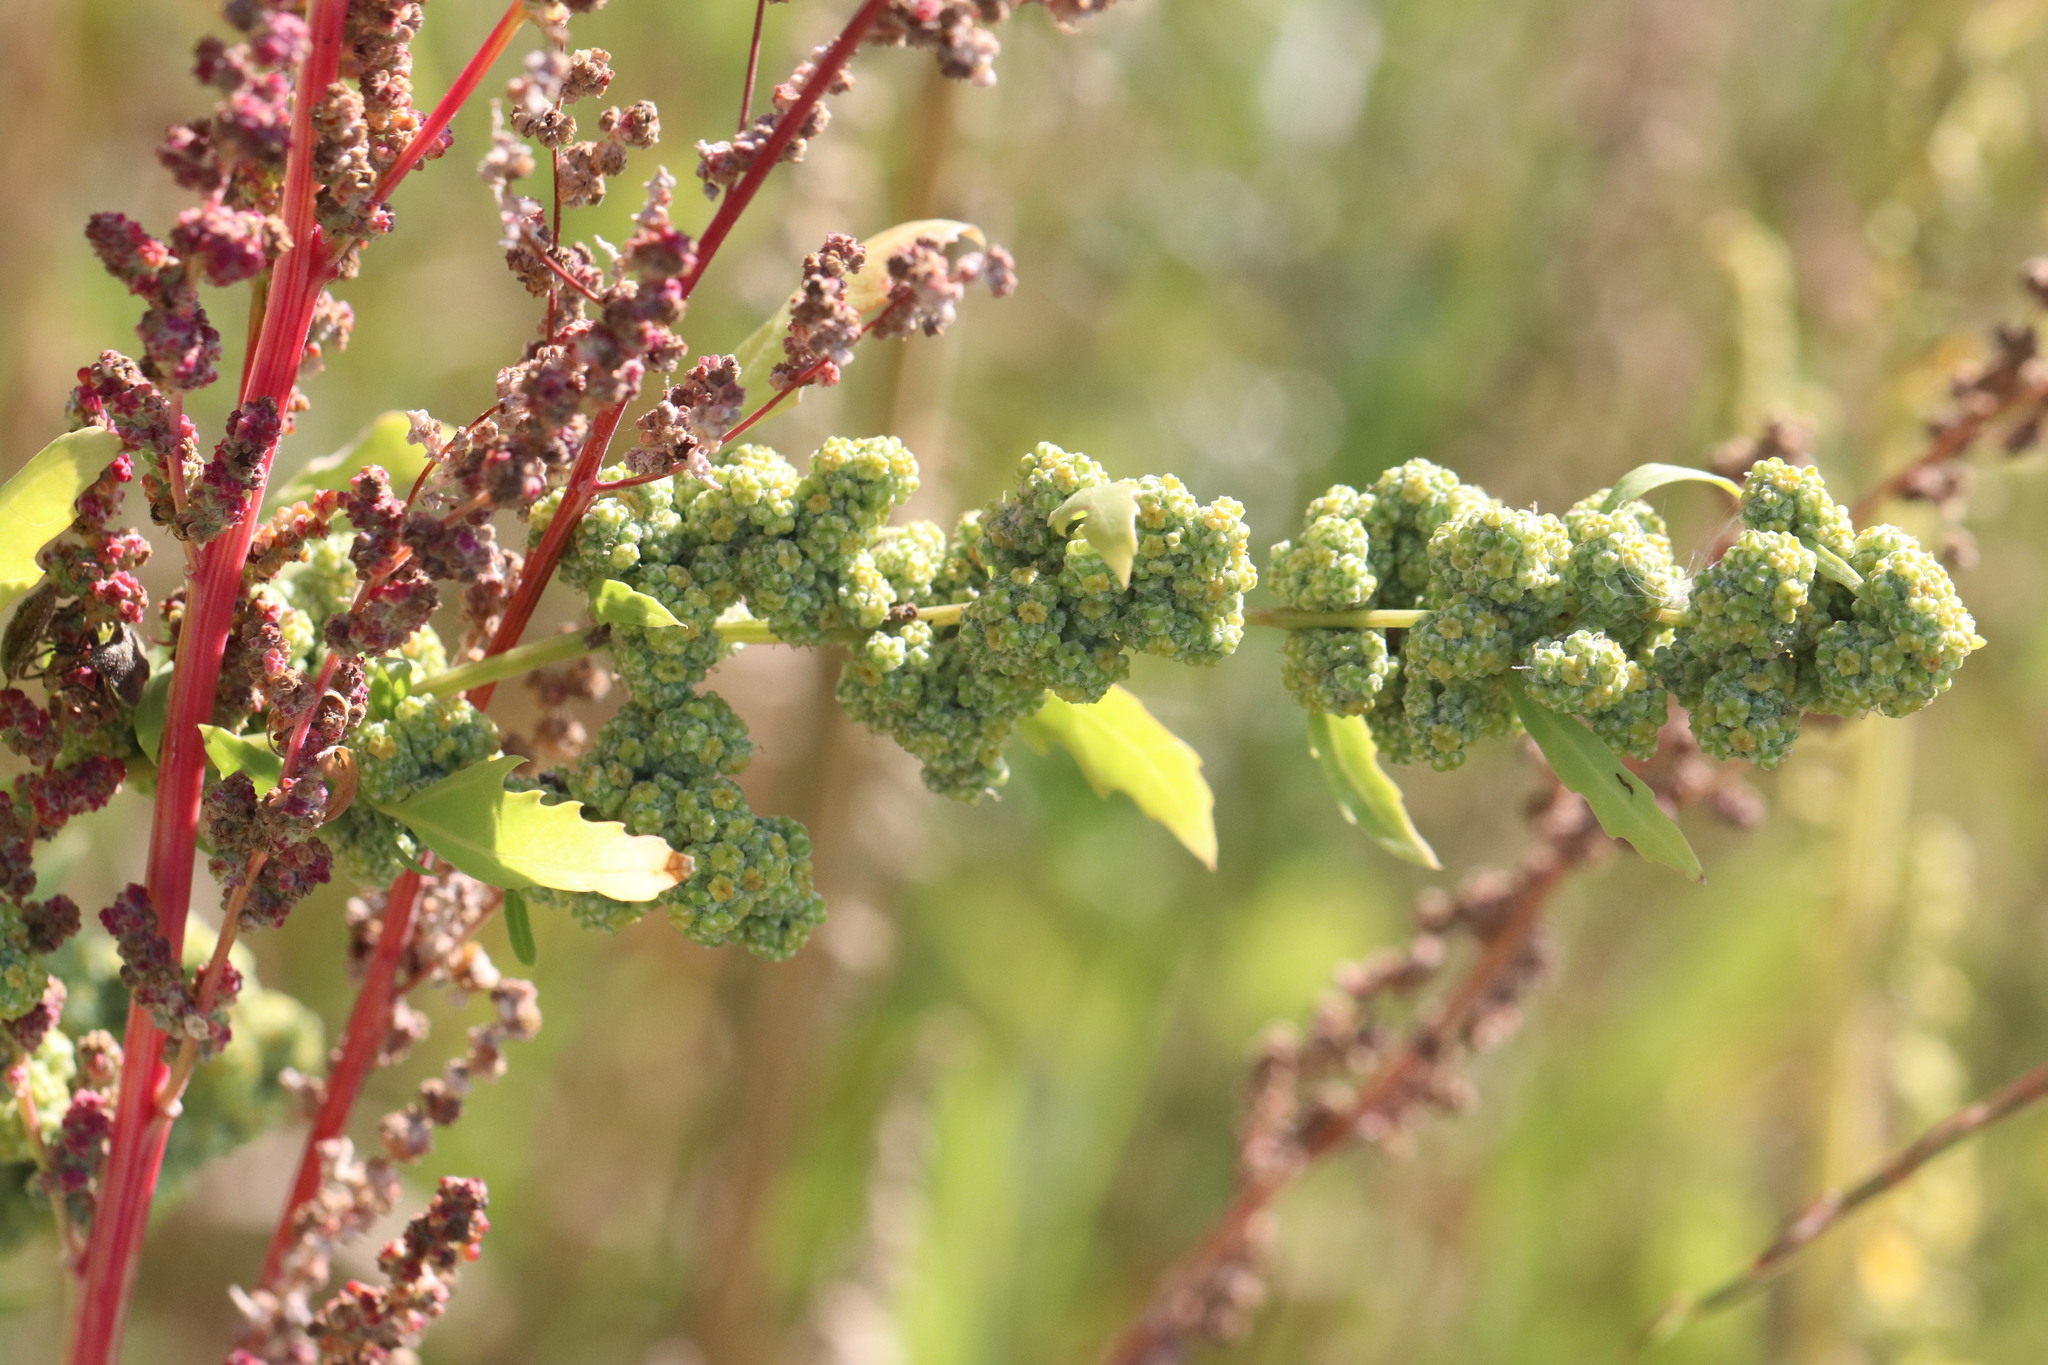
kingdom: Plantae
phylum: Tracheophyta
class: Magnoliopsida
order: Caryophyllales
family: Amaranthaceae
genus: Chenopodium
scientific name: Chenopodium album
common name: Fat-hen
